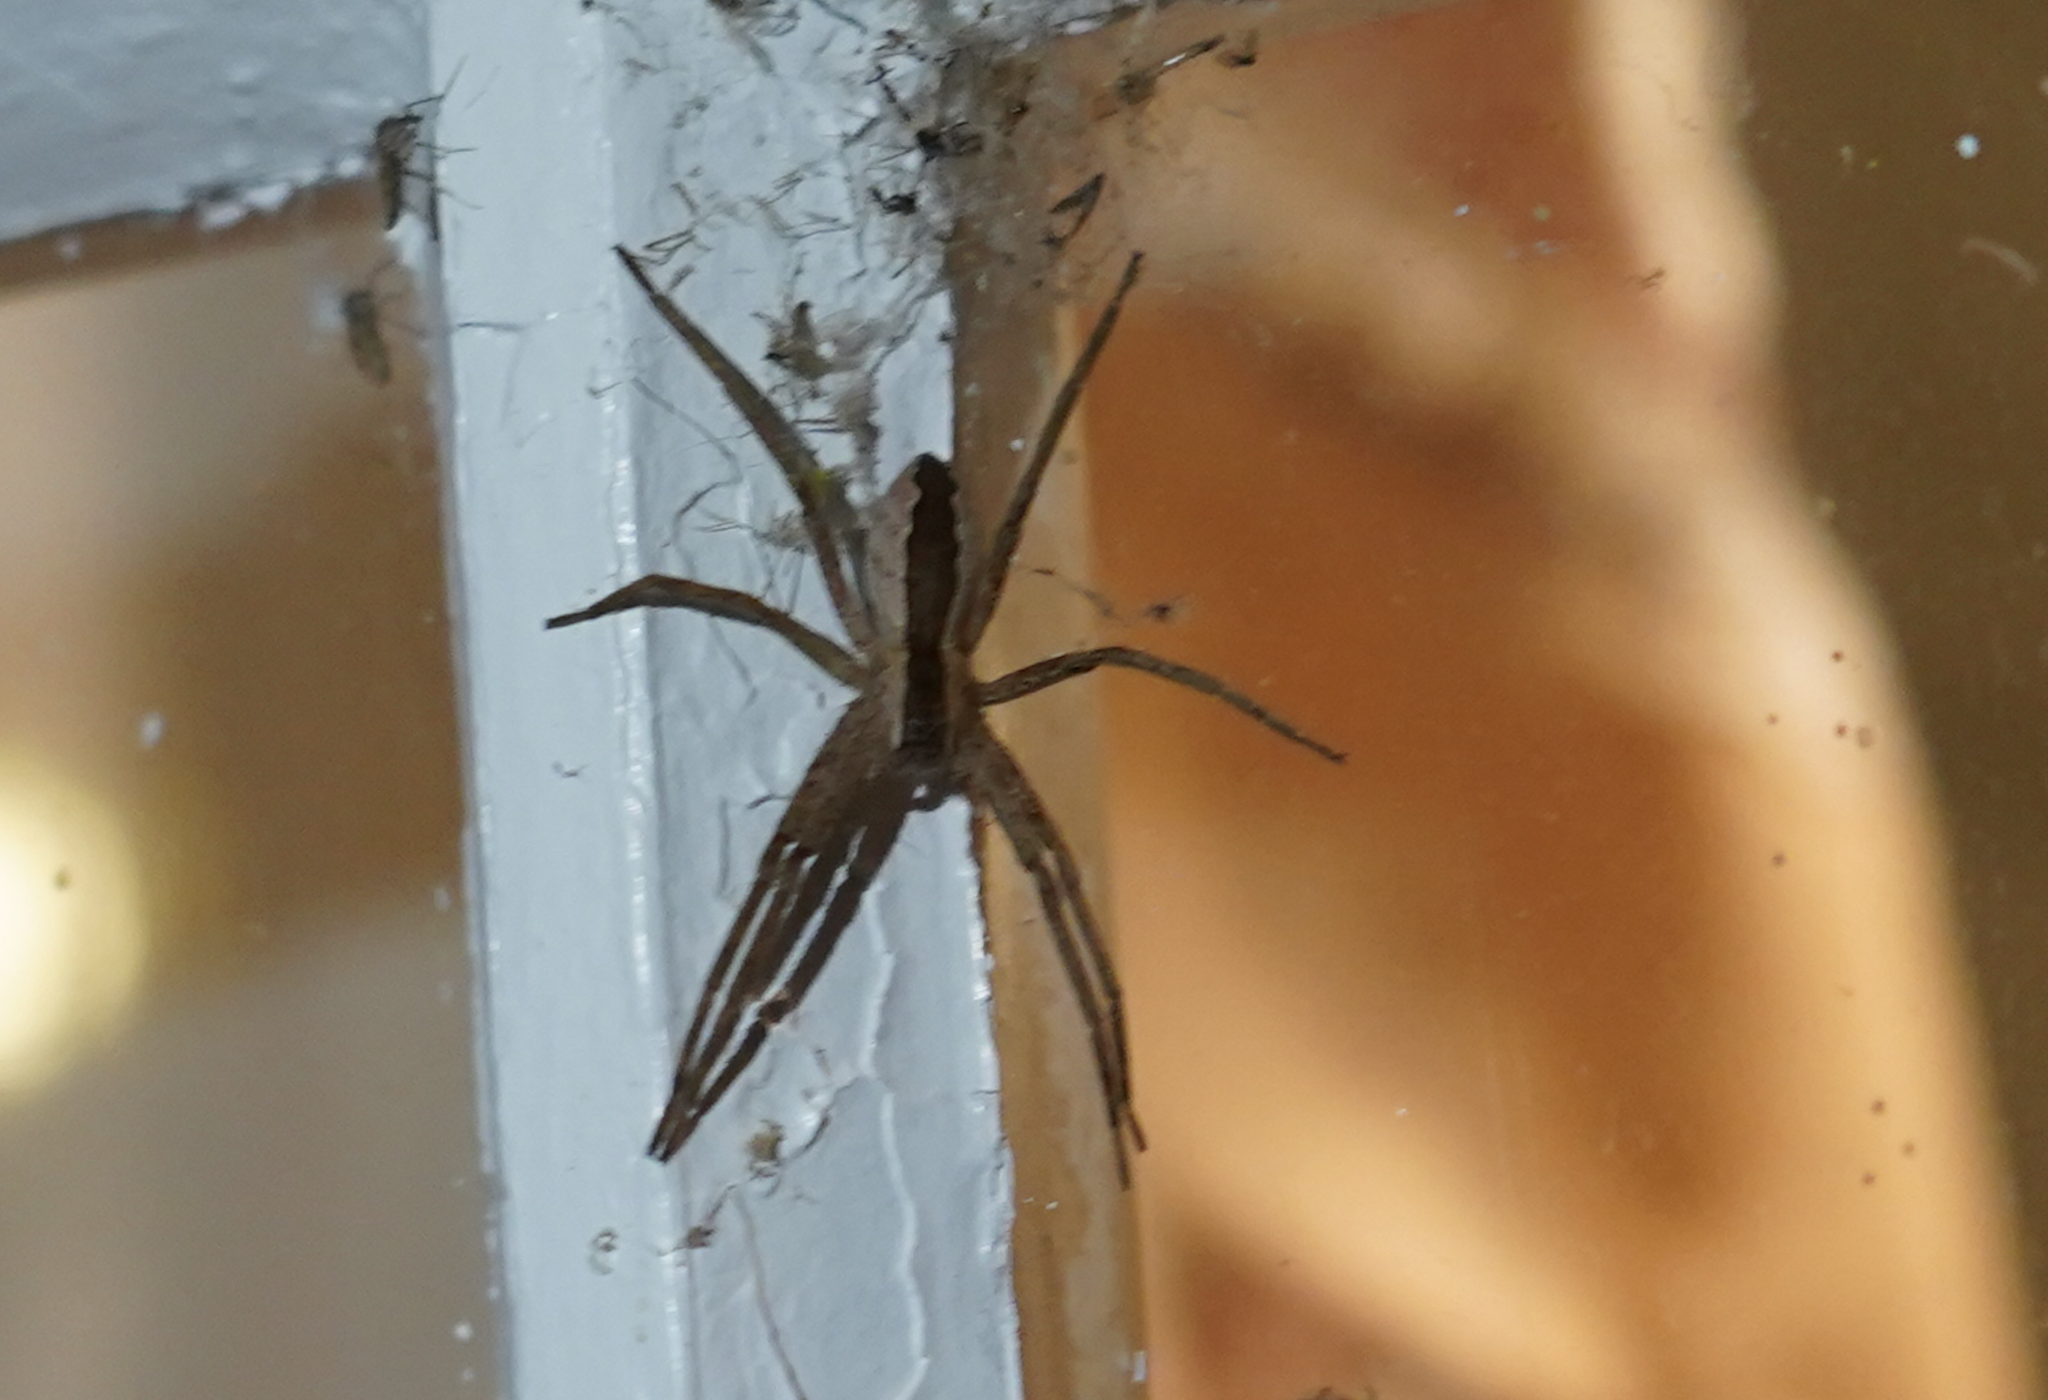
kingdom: Animalia
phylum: Arthropoda
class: Arachnida
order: Araneae
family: Pisauridae
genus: Pisaurina
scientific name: Pisaurina mira
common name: American nursery web spider
